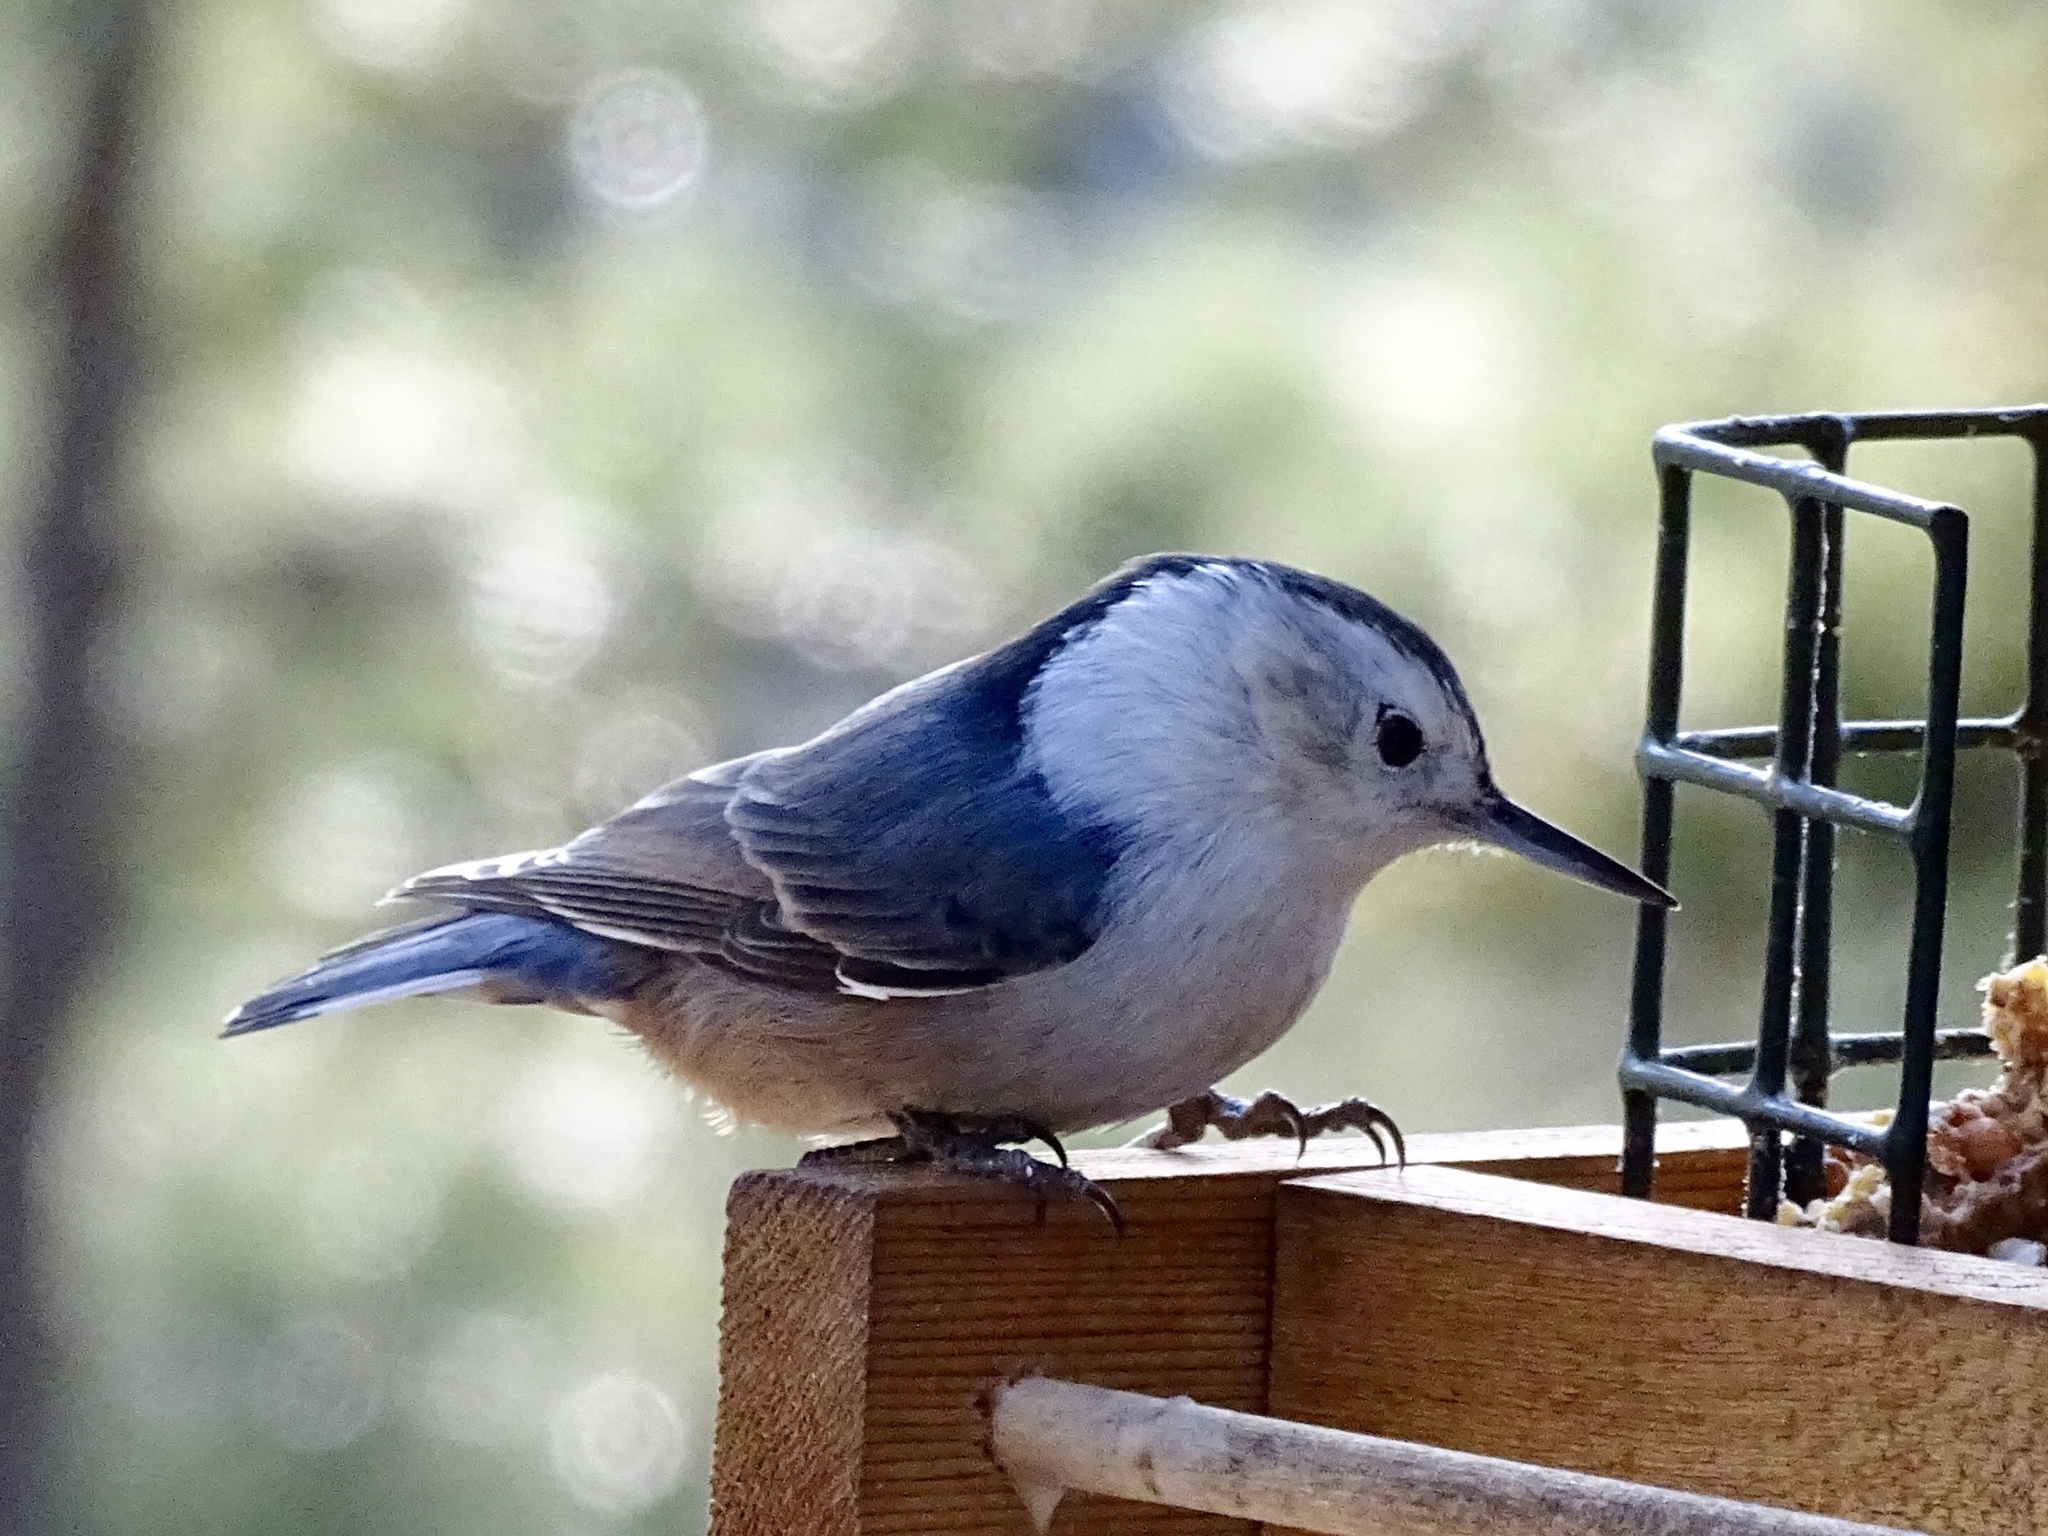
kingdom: Animalia
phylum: Chordata
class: Aves
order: Passeriformes
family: Sittidae
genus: Sitta
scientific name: Sitta carolinensis
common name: White-breasted nuthatch
